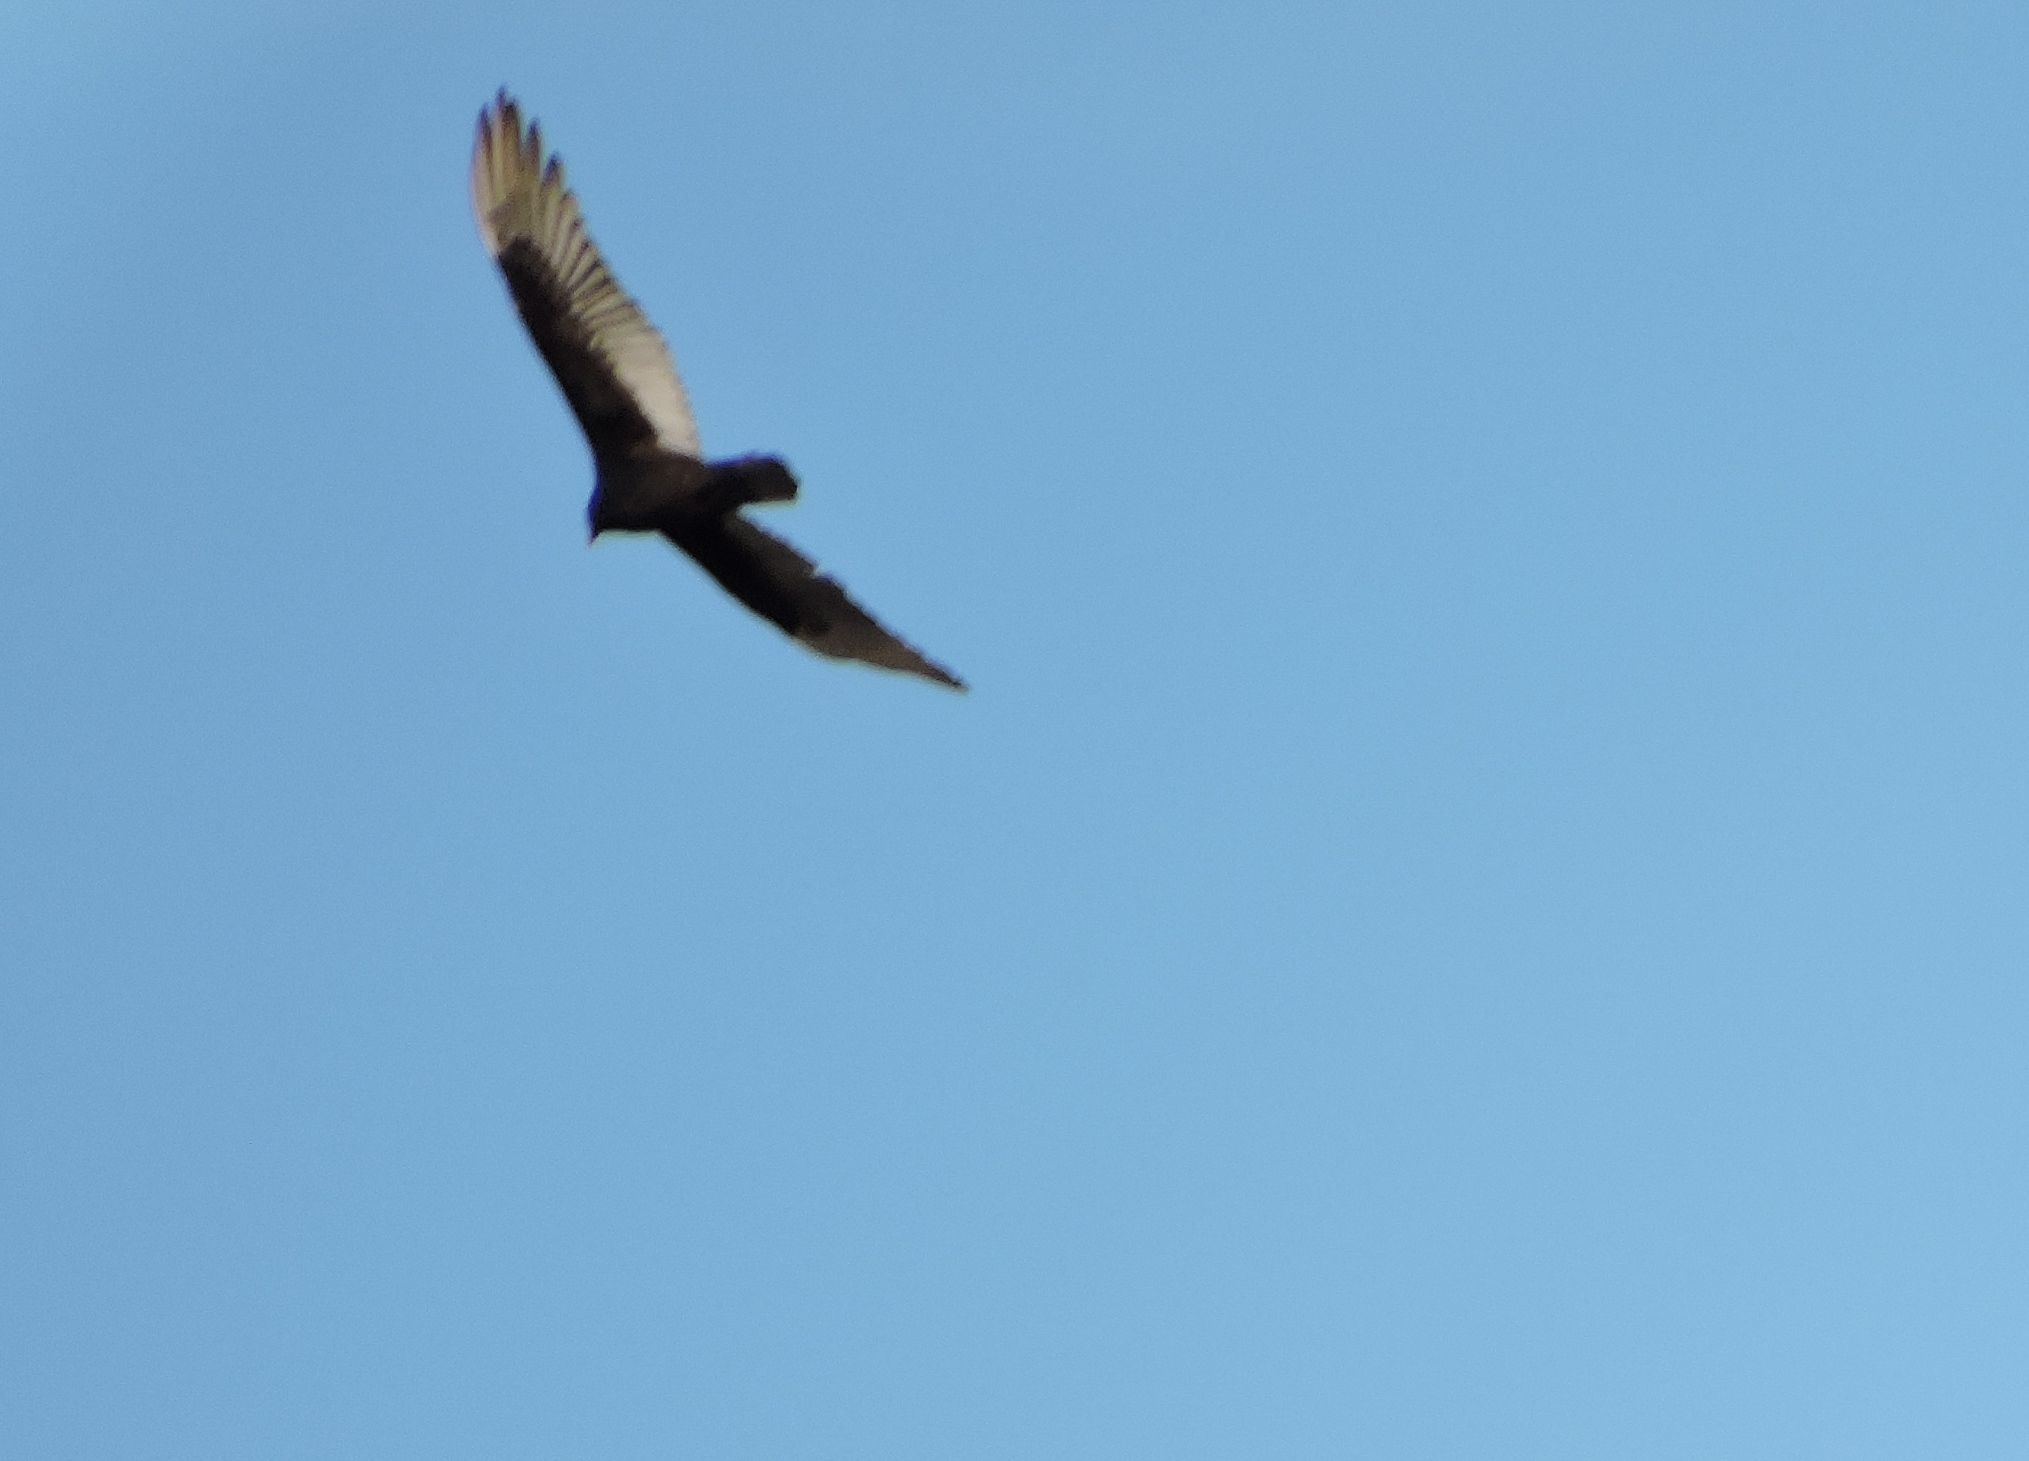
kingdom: Animalia
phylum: Chordata
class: Aves
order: Accipitriformes
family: Cathartidae
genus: Cathartes
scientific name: Cathartes aura
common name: Turkey vulture
